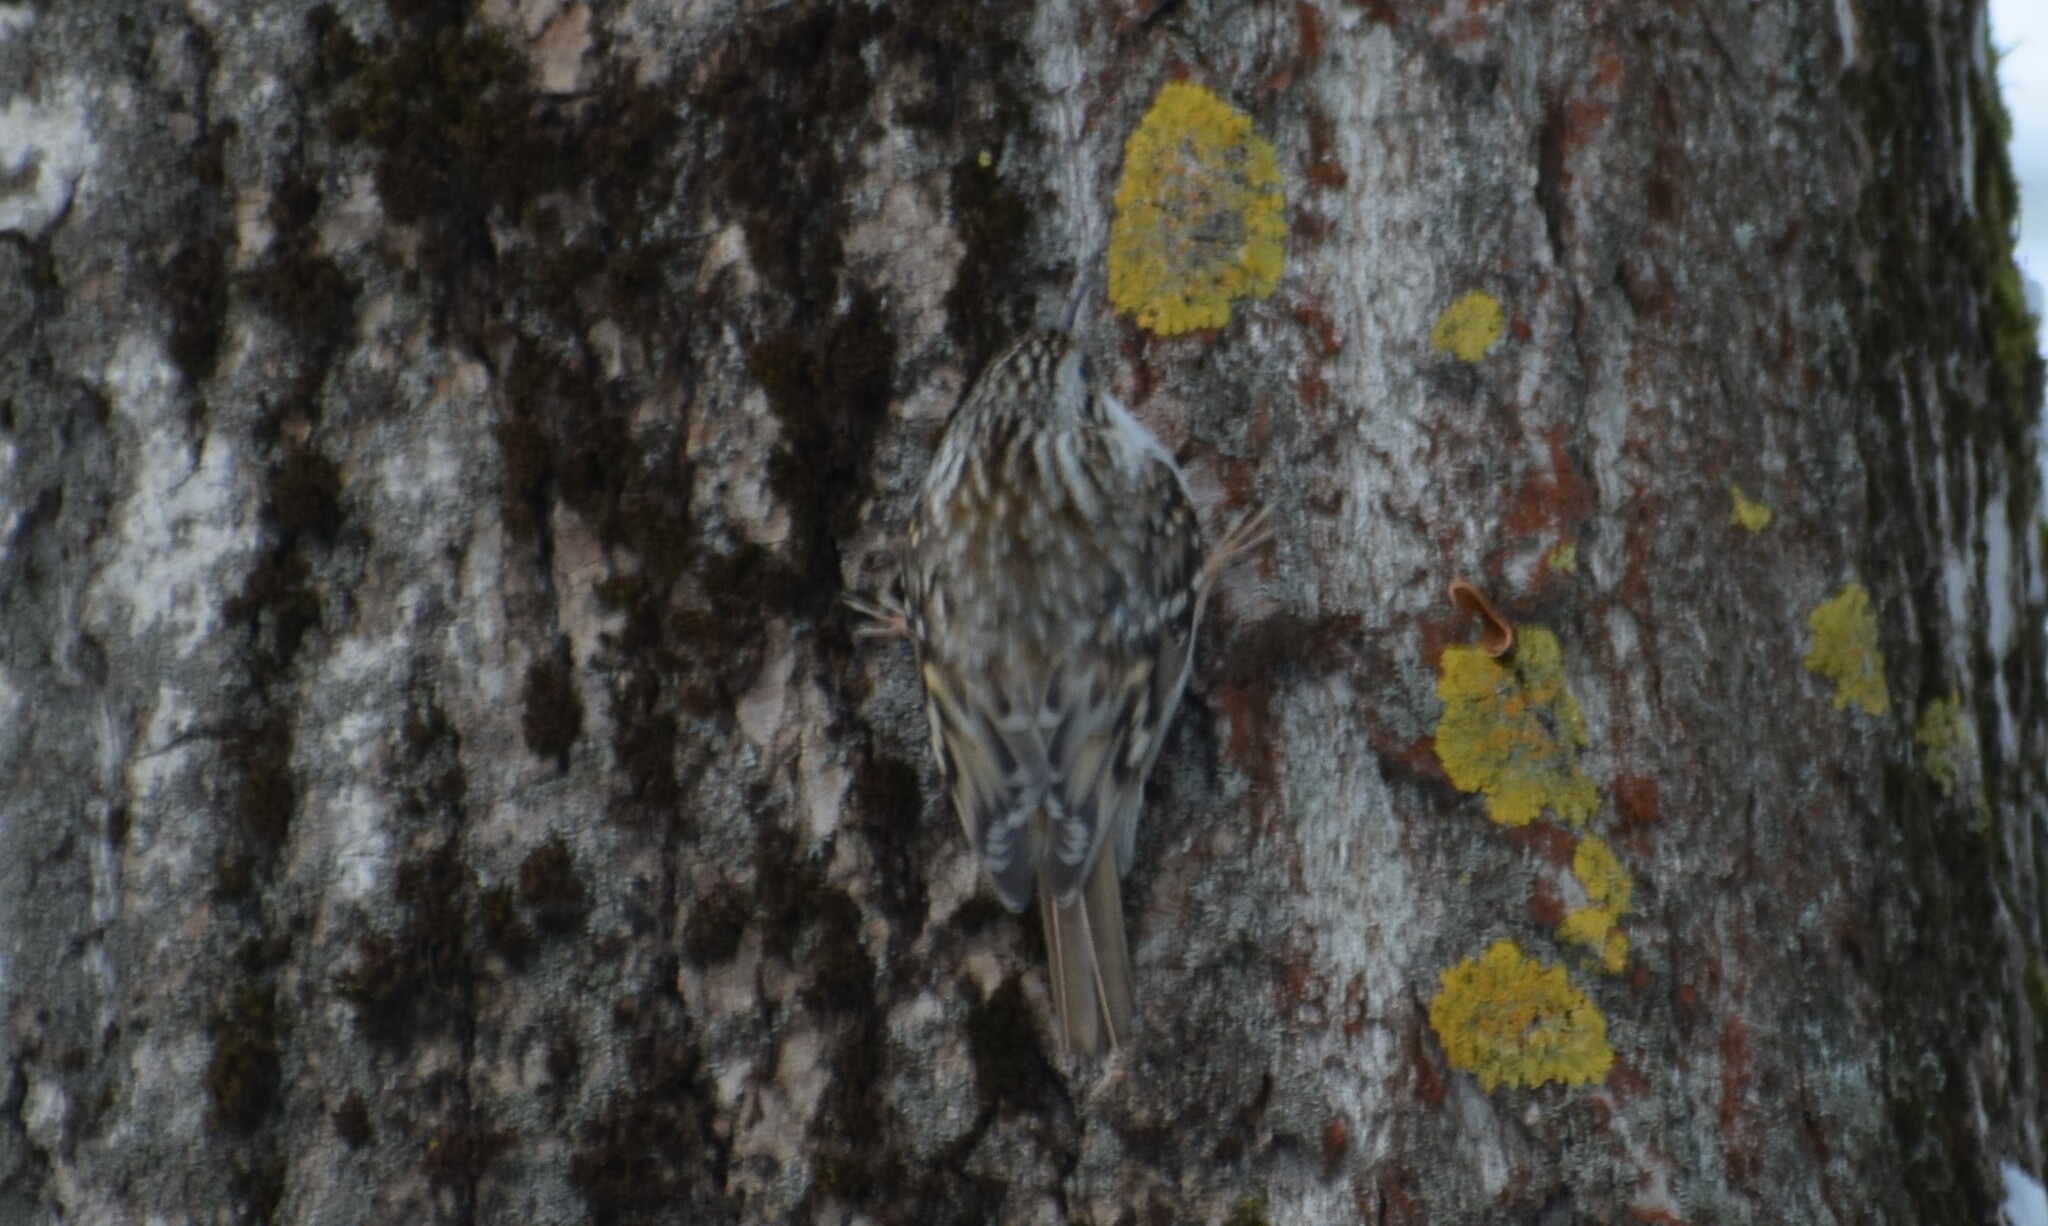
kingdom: Animalia
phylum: Chordata
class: Aves
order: Passeriformes
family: Certhiidae
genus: Certhia
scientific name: Certhia familiaris
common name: Eurasian treecreeper
